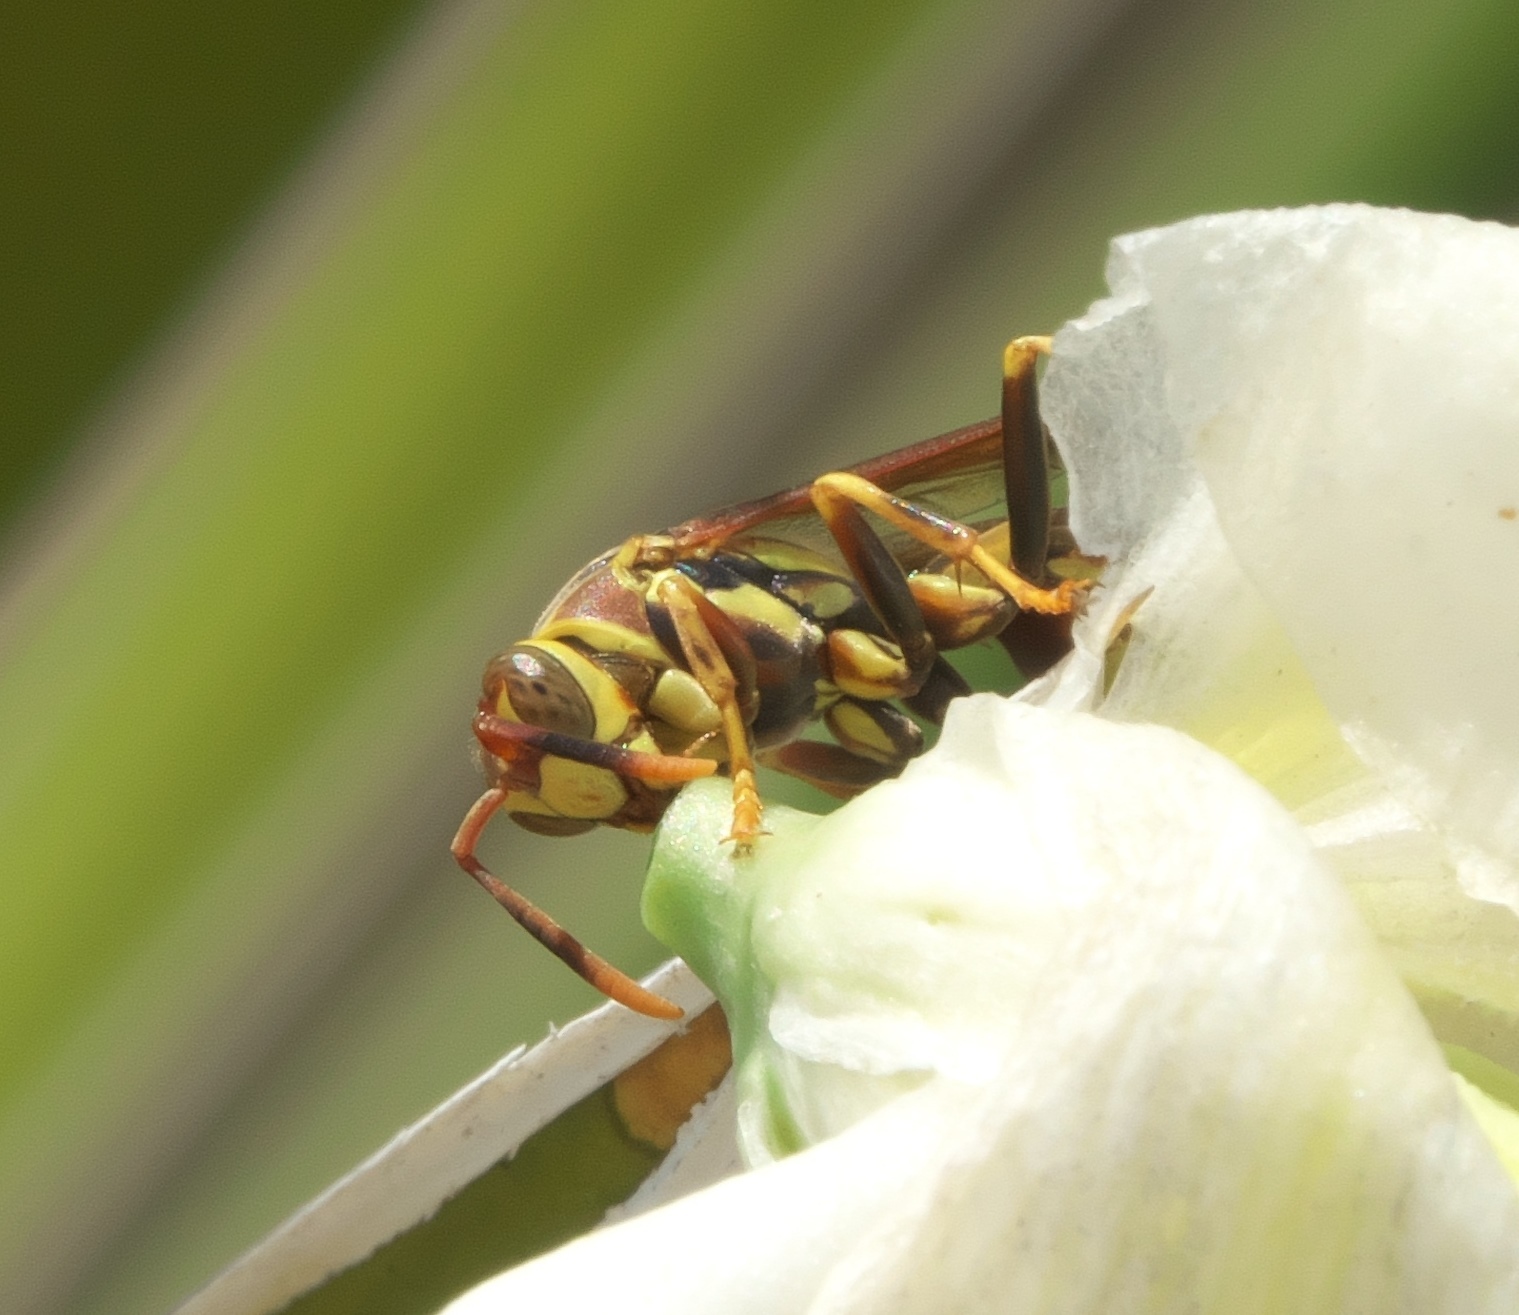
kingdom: Animalia
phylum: Arthropoda
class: Insecta
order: Hymenoptera
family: Eumenidae
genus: Polistes
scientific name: Polistes exclamans
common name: Paper wasp
